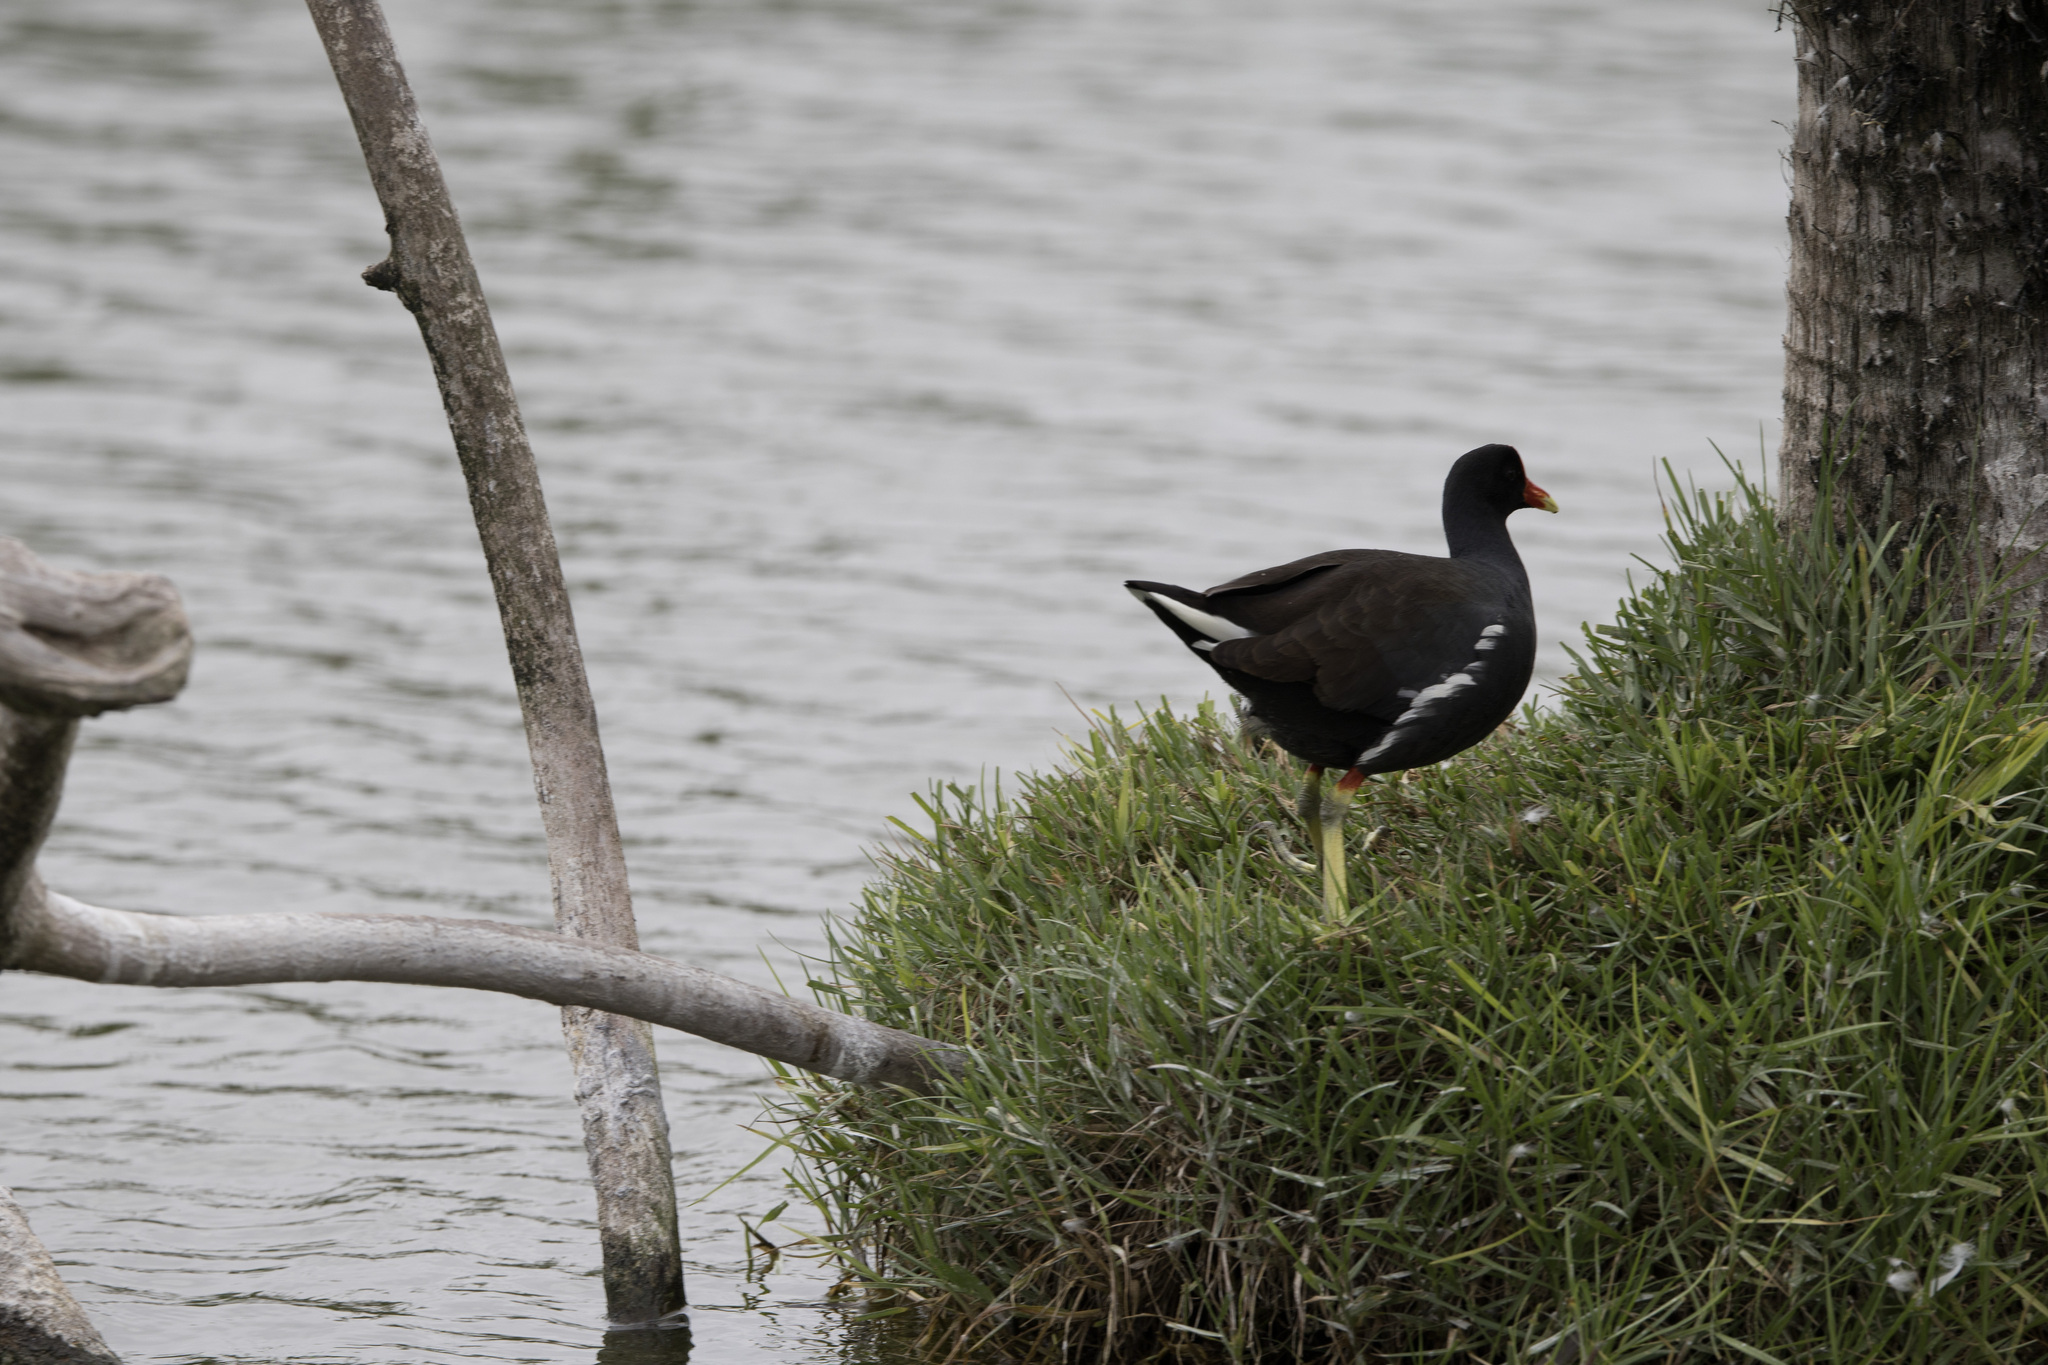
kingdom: Animalia
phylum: Chordata
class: Aves
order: Gruiformes
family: Rallidae
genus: Gallinula
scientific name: Gallinula chloropus
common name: Common moorhen
